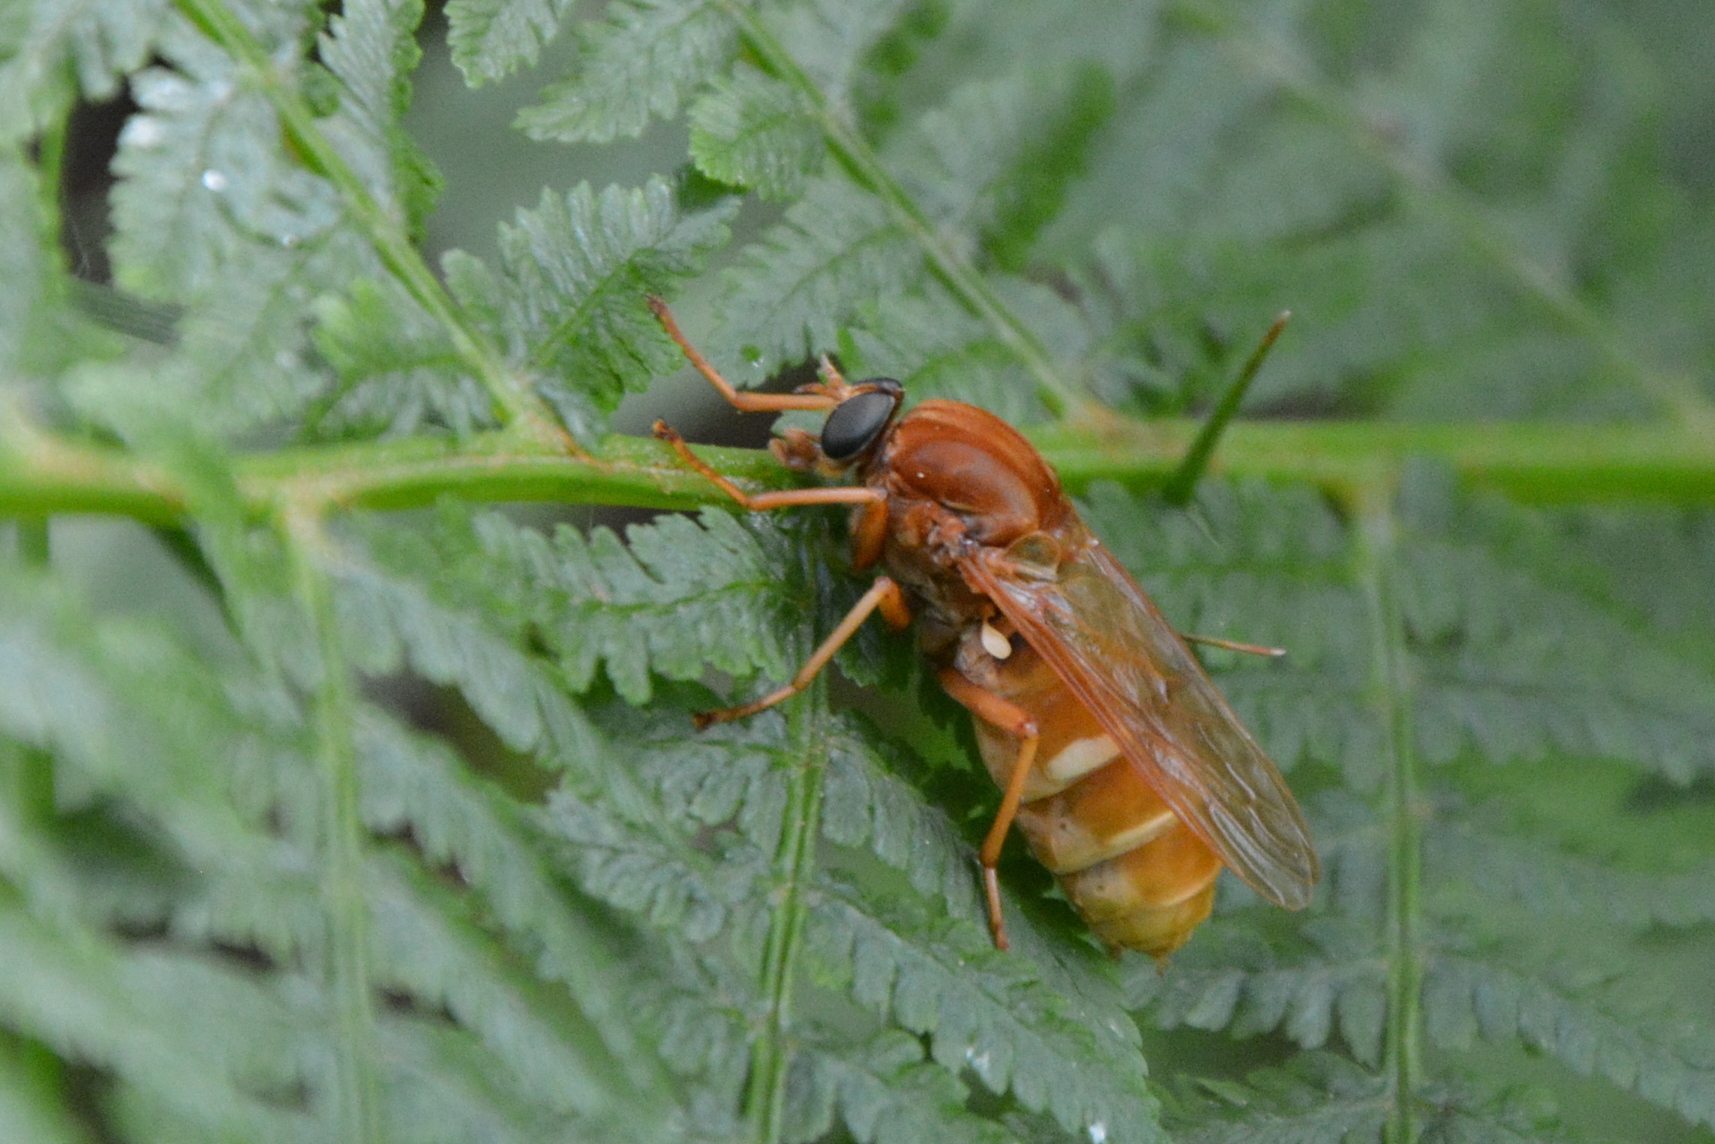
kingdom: Animalia
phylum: Arthropoda
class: Insecta
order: Diptera
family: Xylophagidae
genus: Coenomyia
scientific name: Coenomyia ferruginea
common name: Stink fly
